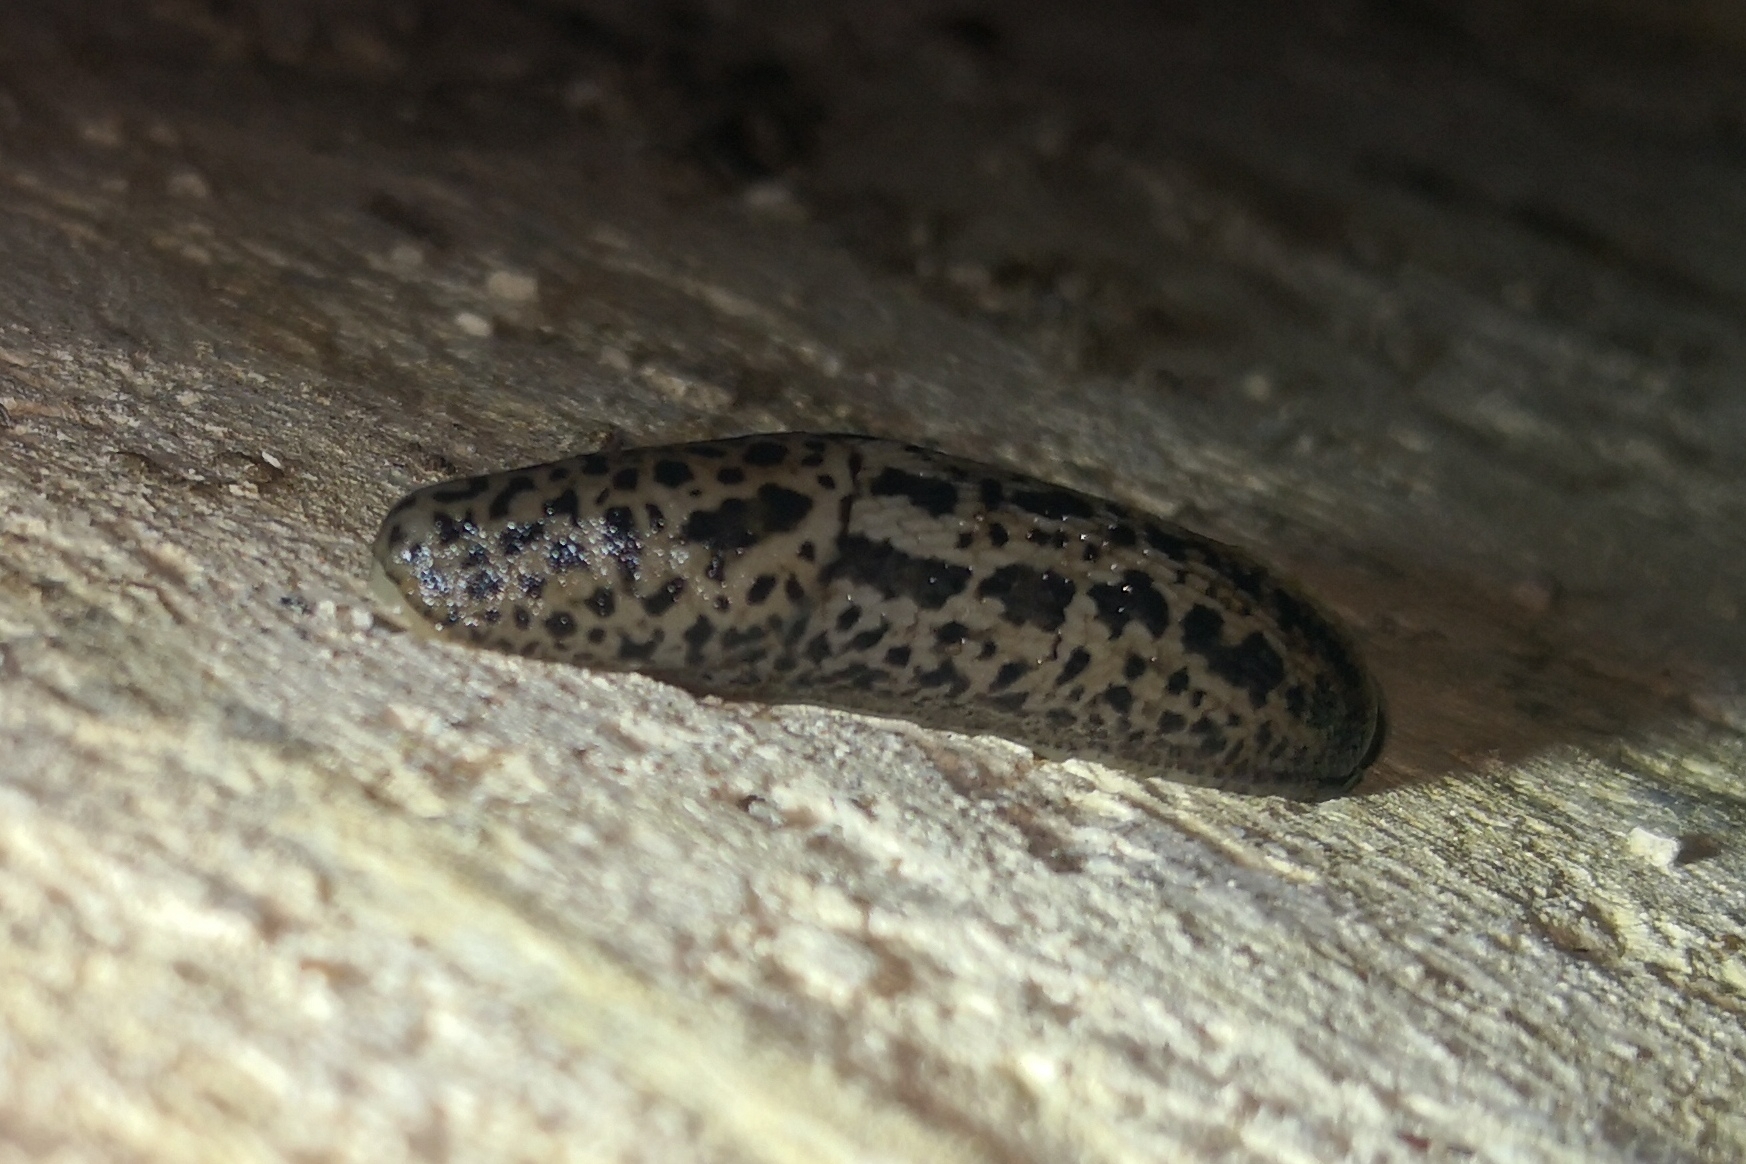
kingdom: Animalia
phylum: Mollusca
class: Gastropoda
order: Stylommatophora
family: Limacidae
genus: Limax
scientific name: Limax maximus
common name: Great grey slug
